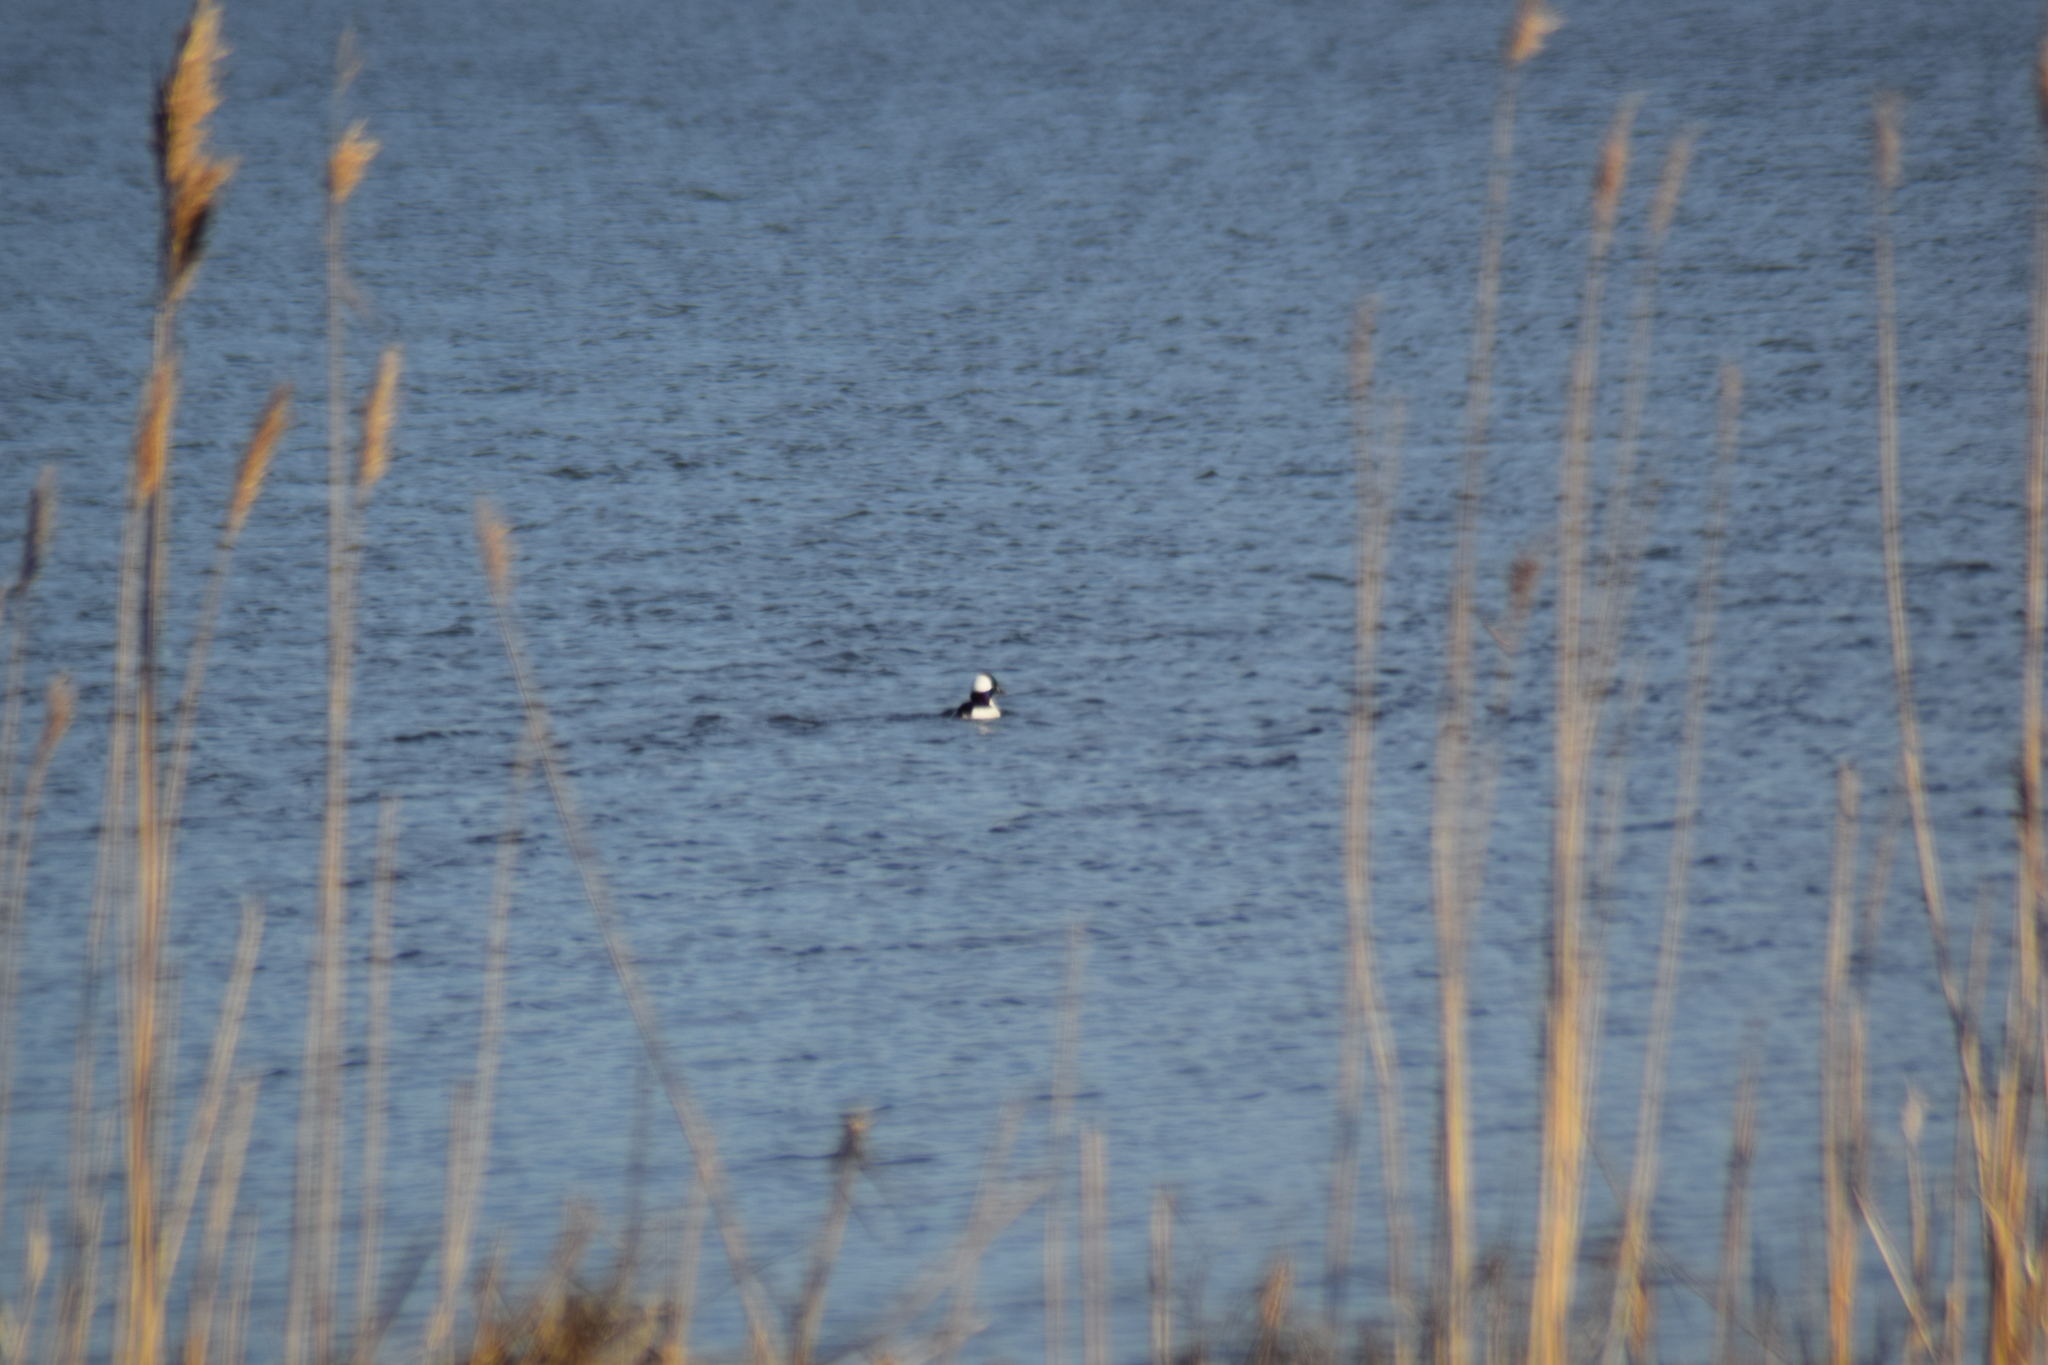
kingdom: Animalia
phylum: Chordata
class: Aves
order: Anseriformes
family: Anatidae
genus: Bucephala
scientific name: Bucephala albeola
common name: Bufflehead
